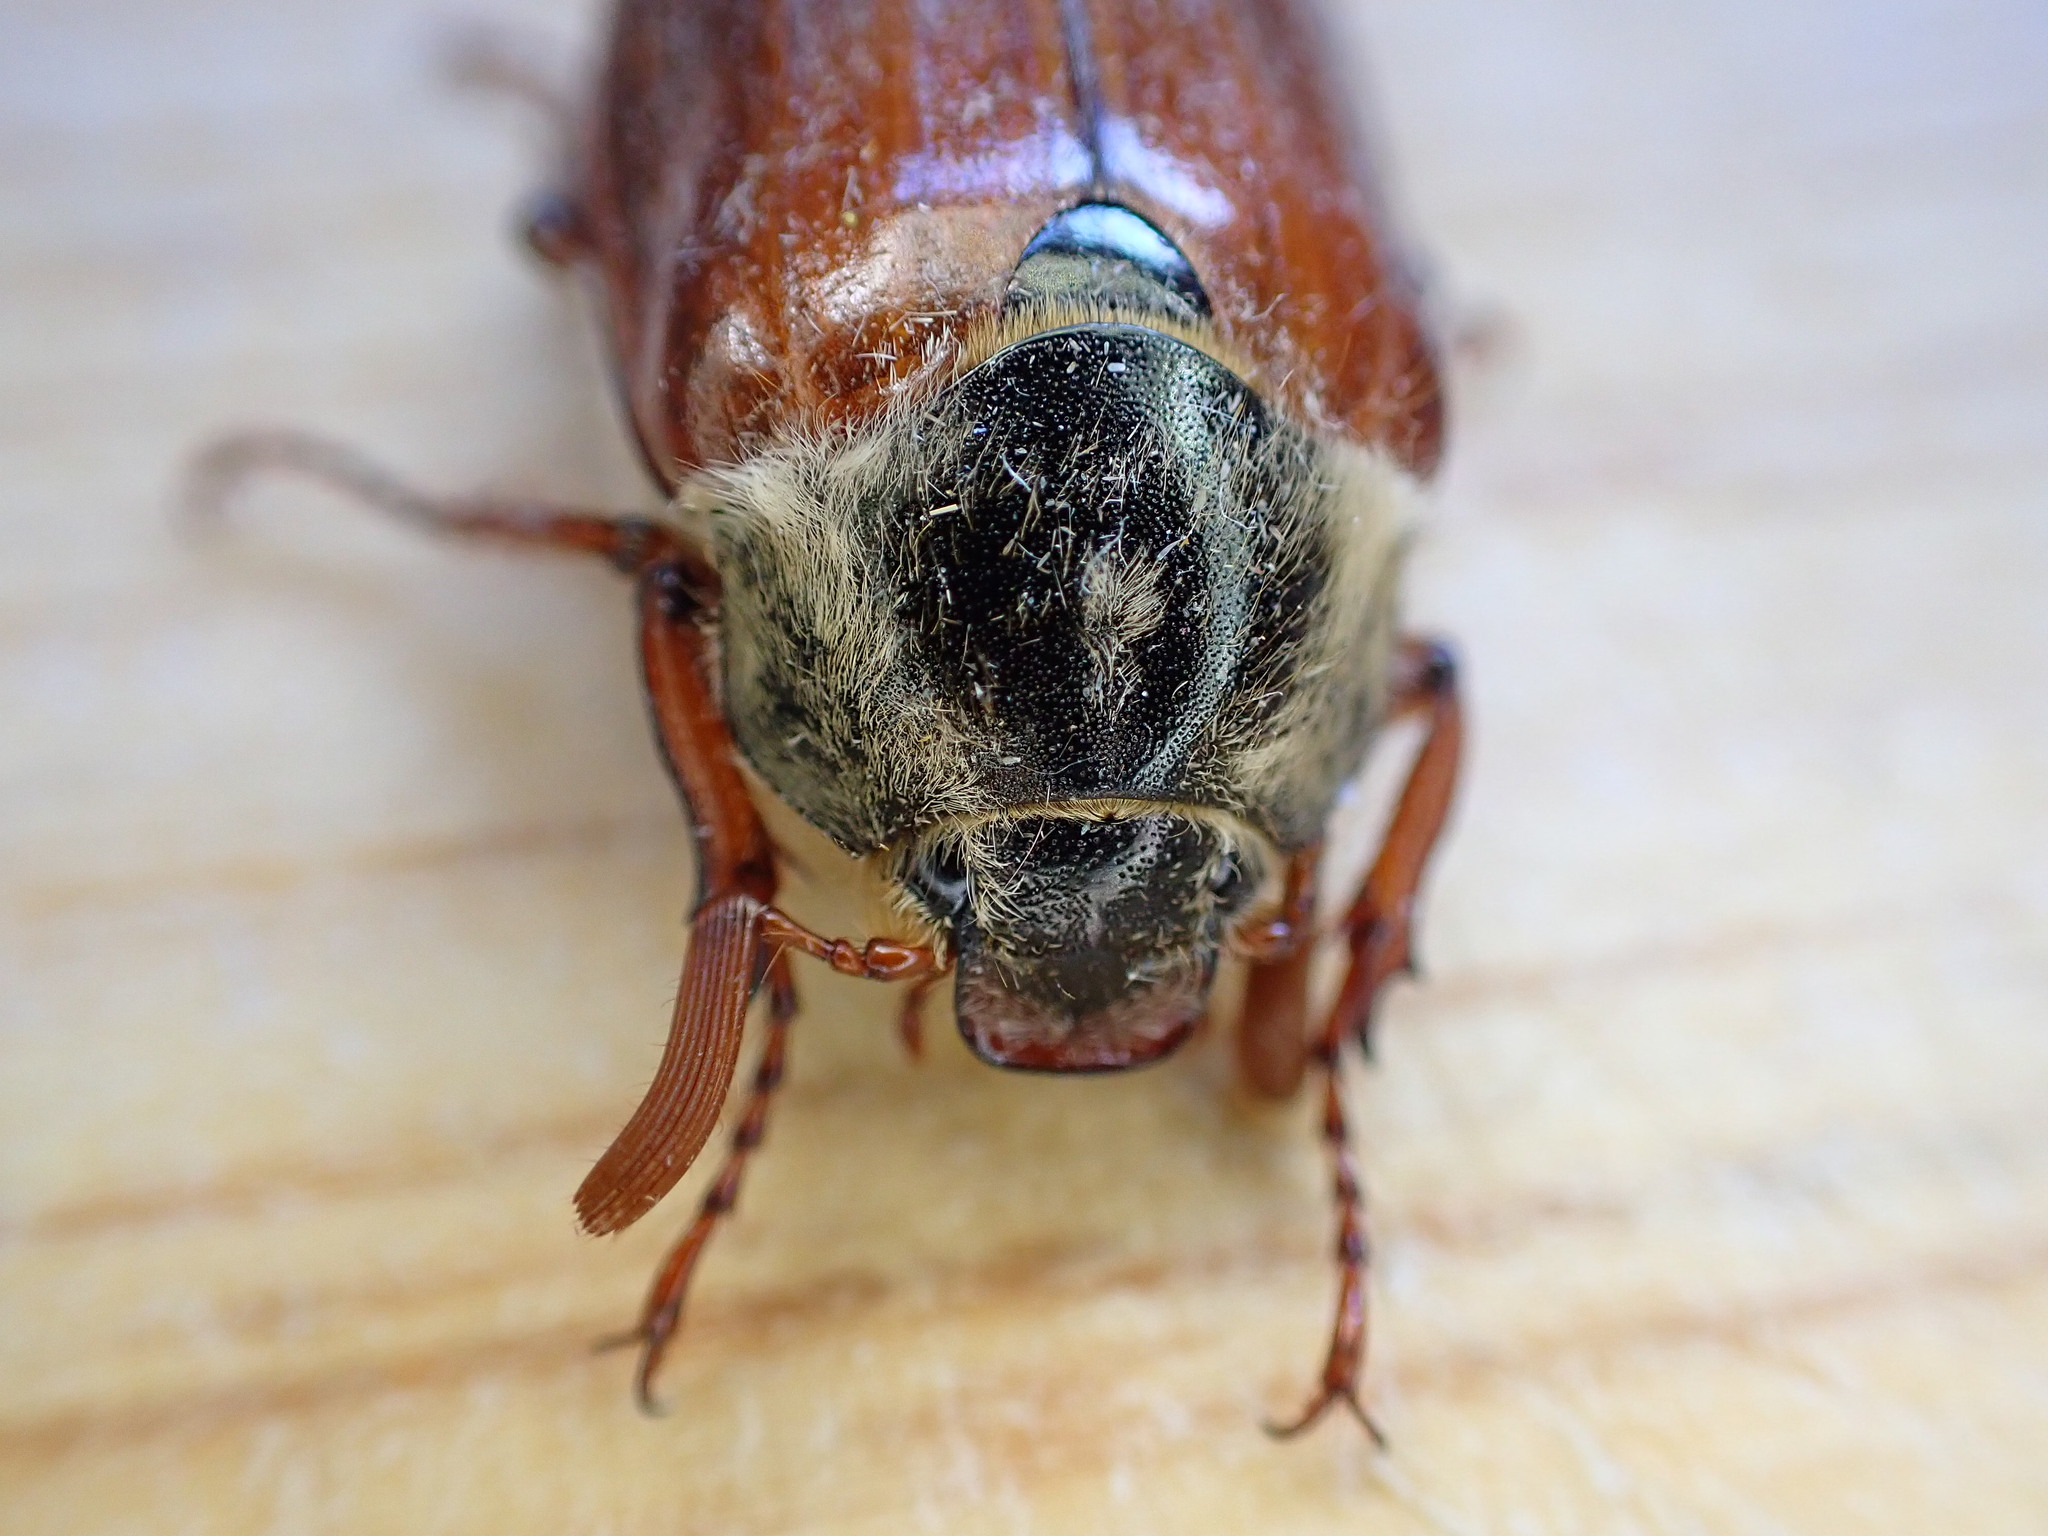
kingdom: Animalia
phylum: Arthropoda
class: Insecta
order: Coleoptera
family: Scarabaeidae
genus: Melolontha
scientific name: Melolontha melolontha
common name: Cockchafer maybeetle
